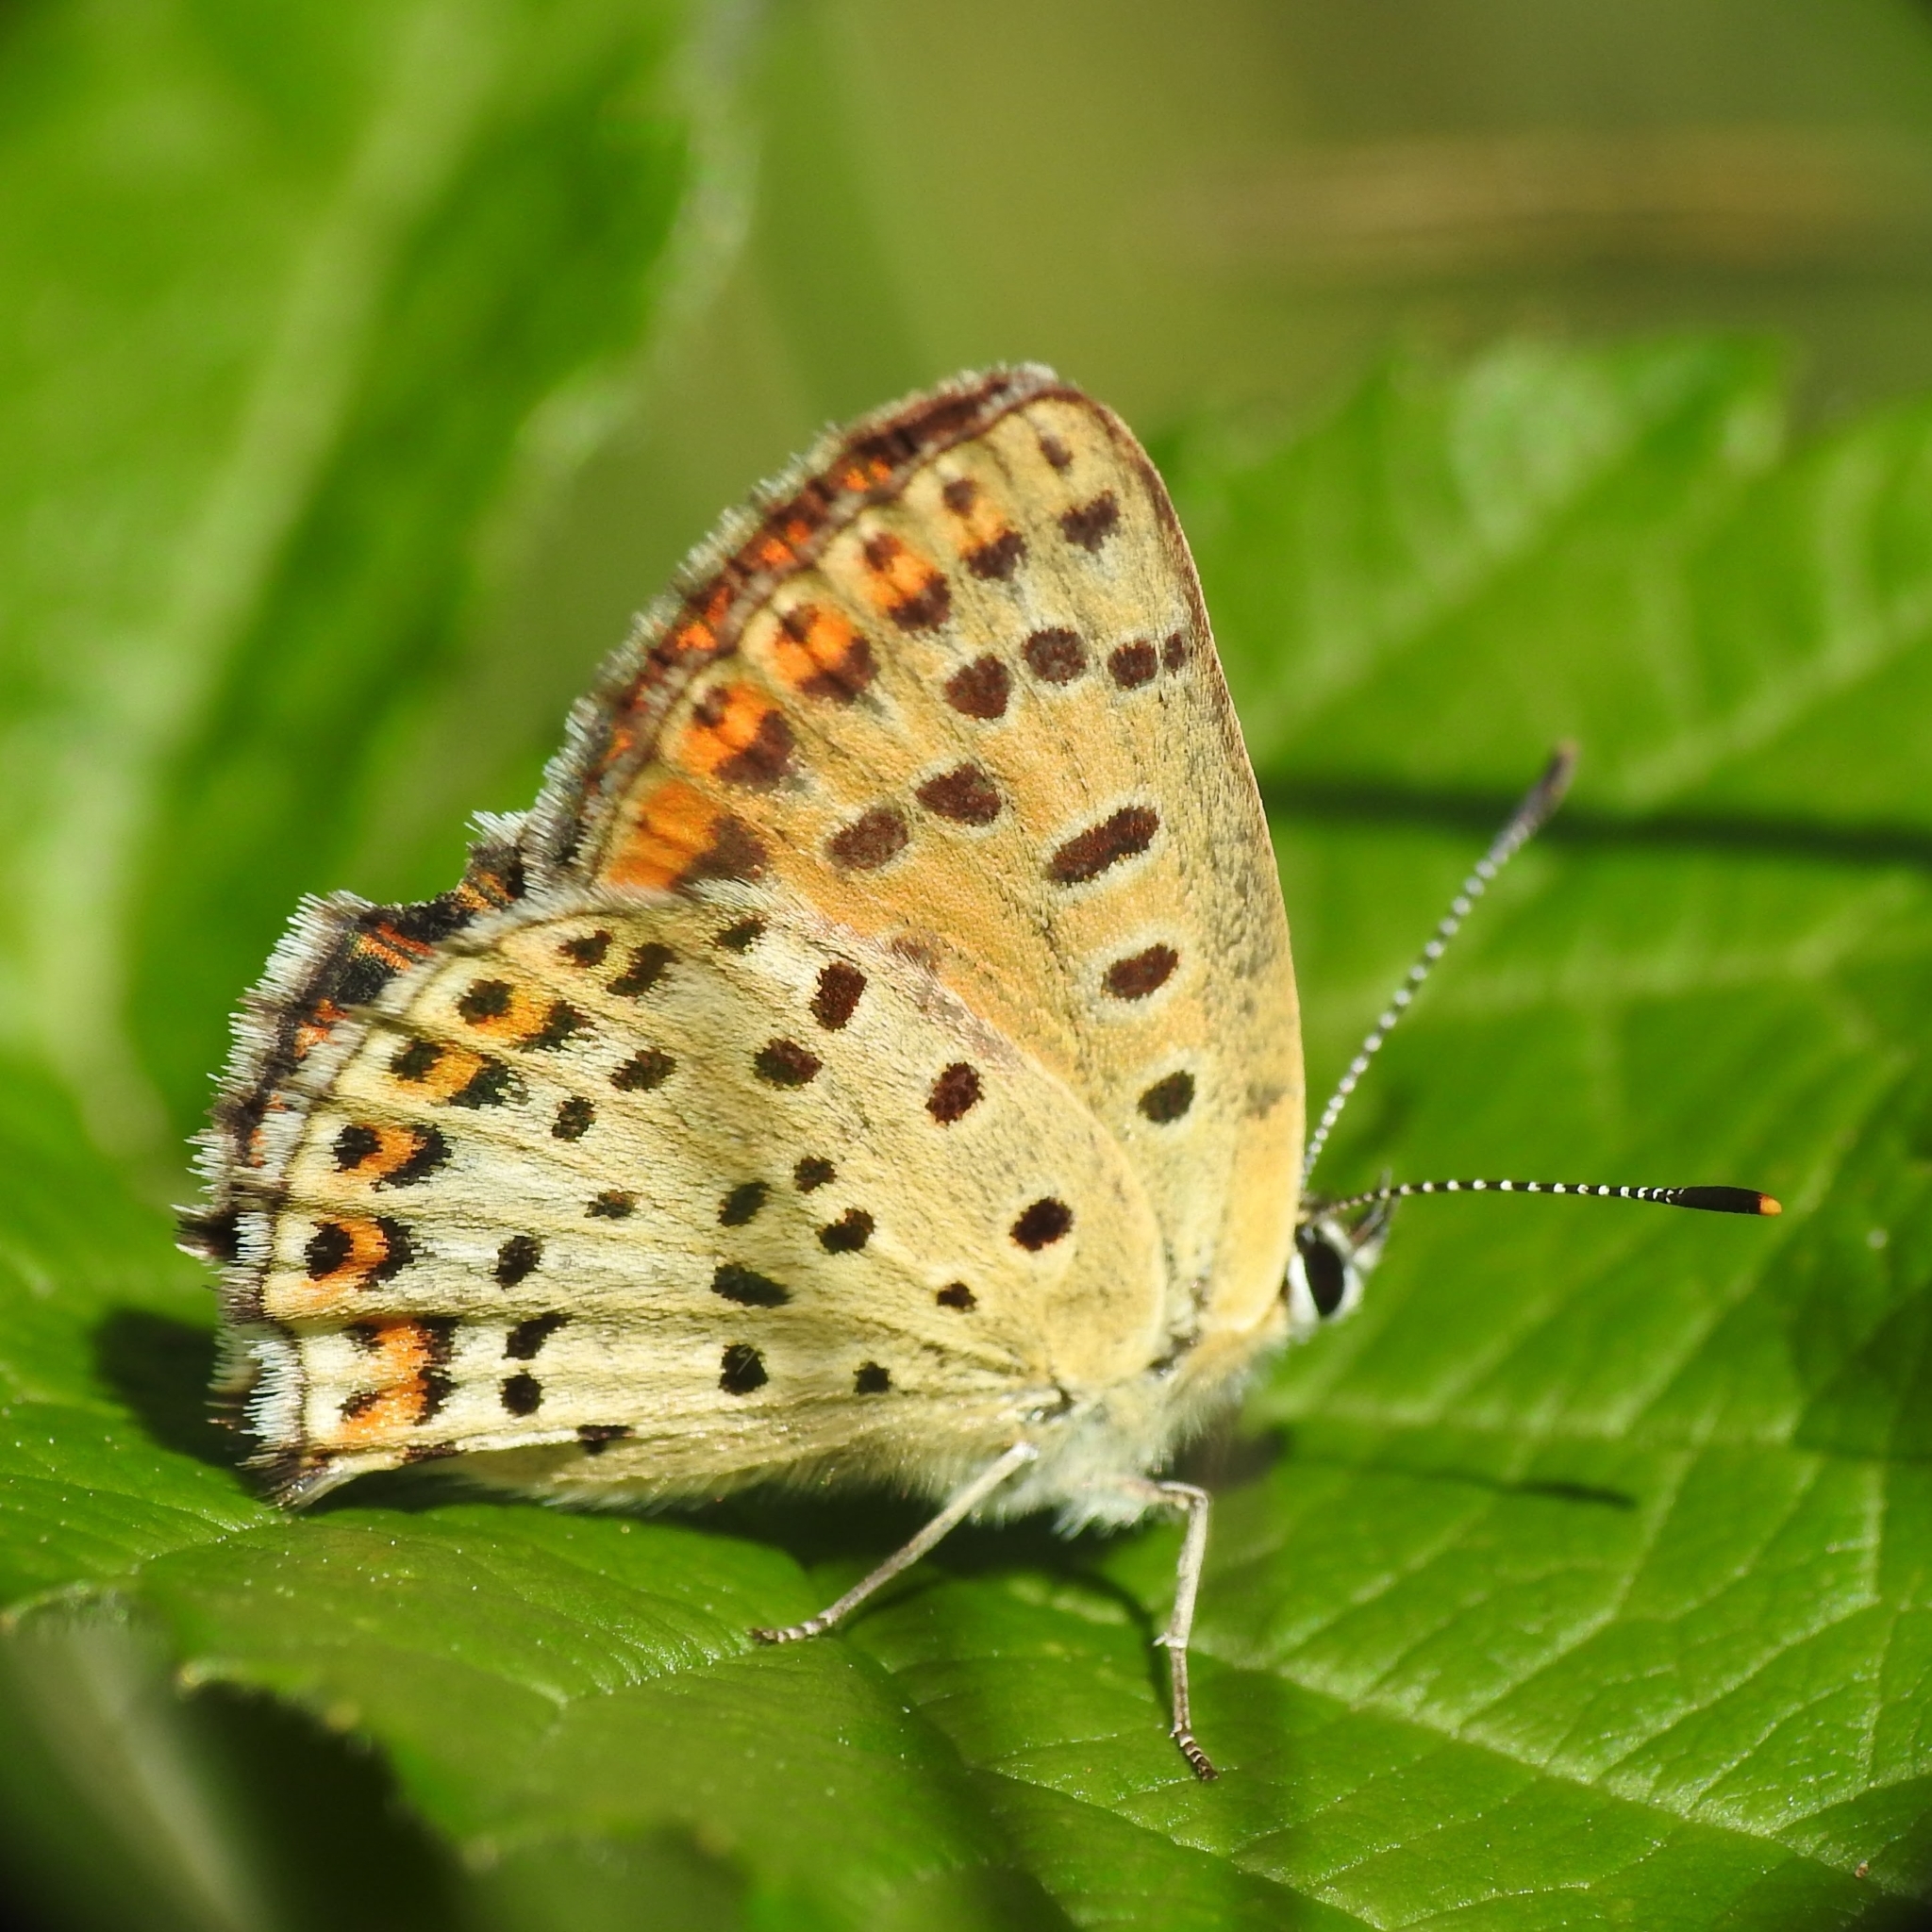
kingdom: Animalia
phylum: Arthropoda
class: Insecta
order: Lepidoptera
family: Lycaenidae
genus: Loweia
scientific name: Loweia tityrus
